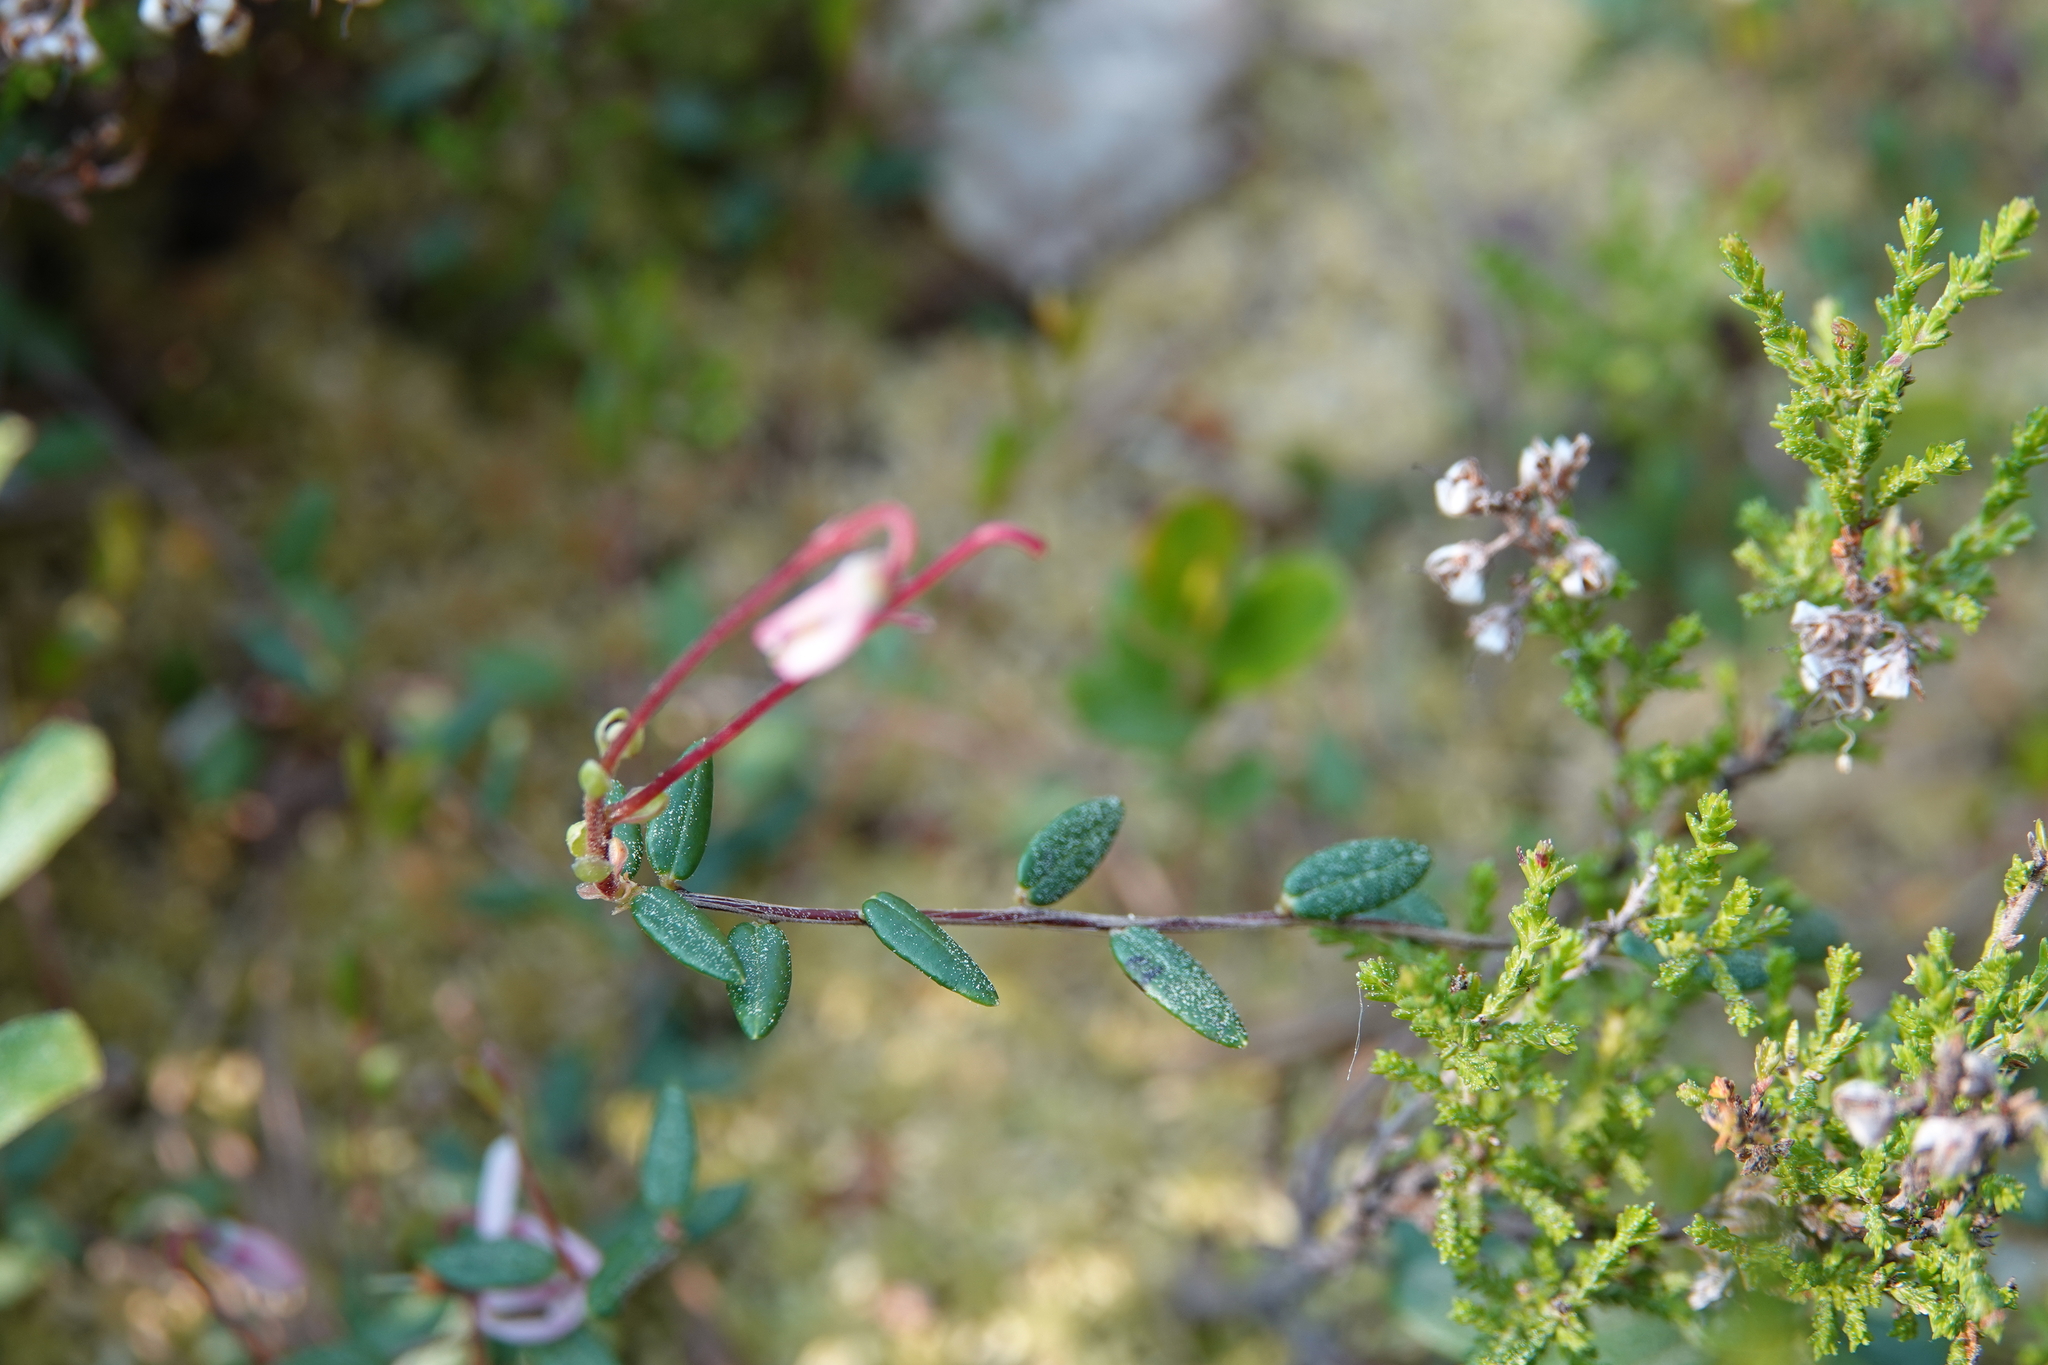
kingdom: Plantae
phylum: Tracheophyta
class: Magnoliopsida
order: Ericales
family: Ericaceae
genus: Vaccinium
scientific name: Vaccinium oxycoccos
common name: Cranberry
